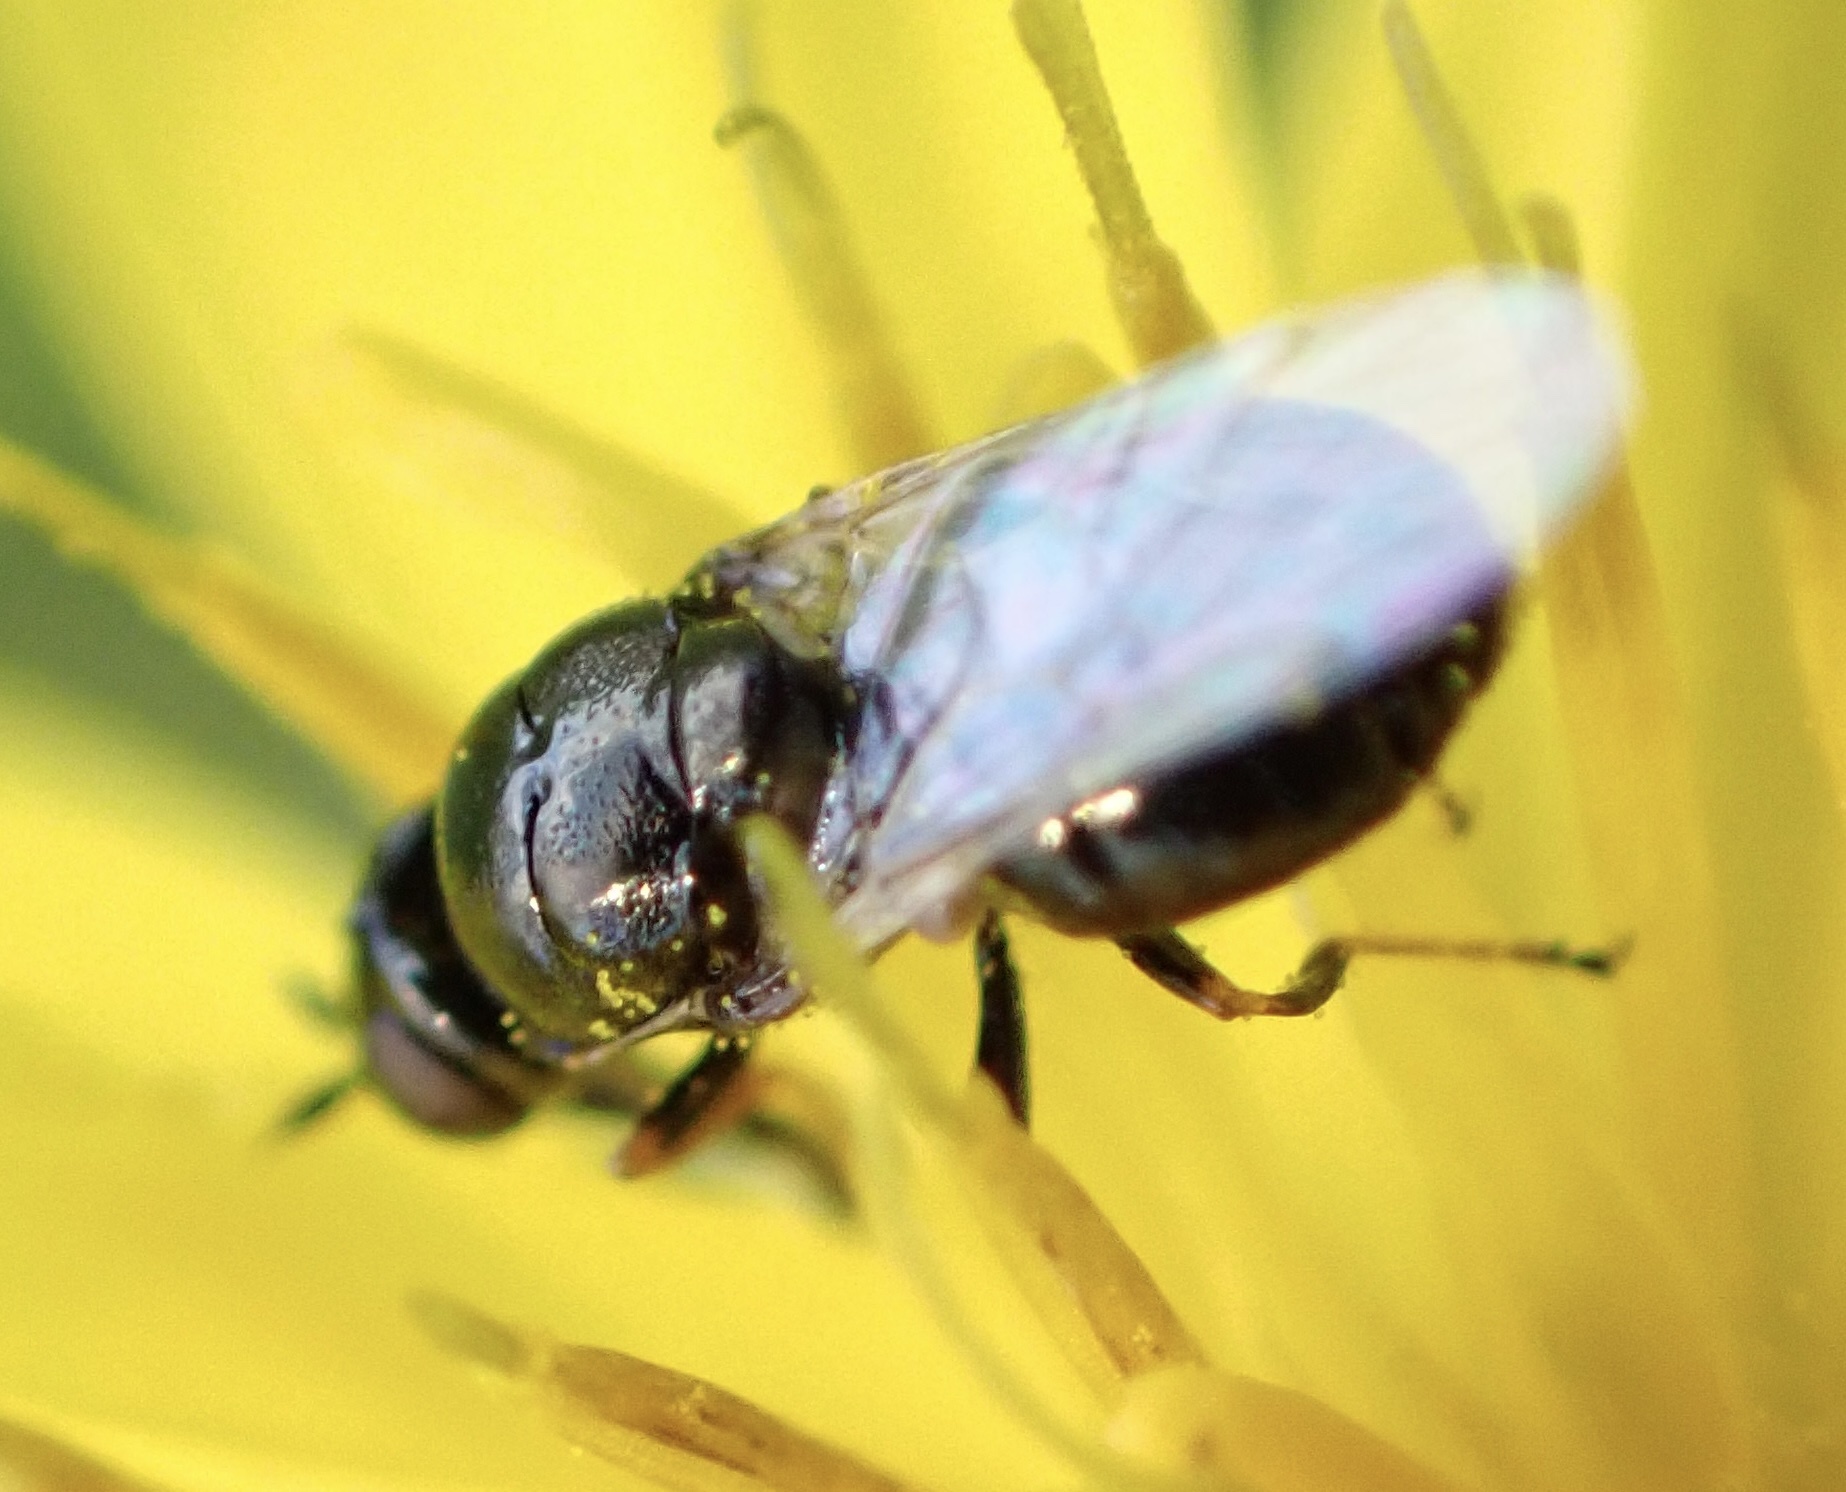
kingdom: Animalia
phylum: Arthropoda
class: Insecta
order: Diptera
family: Stratiomyidae
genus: Nemotelus
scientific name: Nemotelus nigrinus
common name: All-black snout
